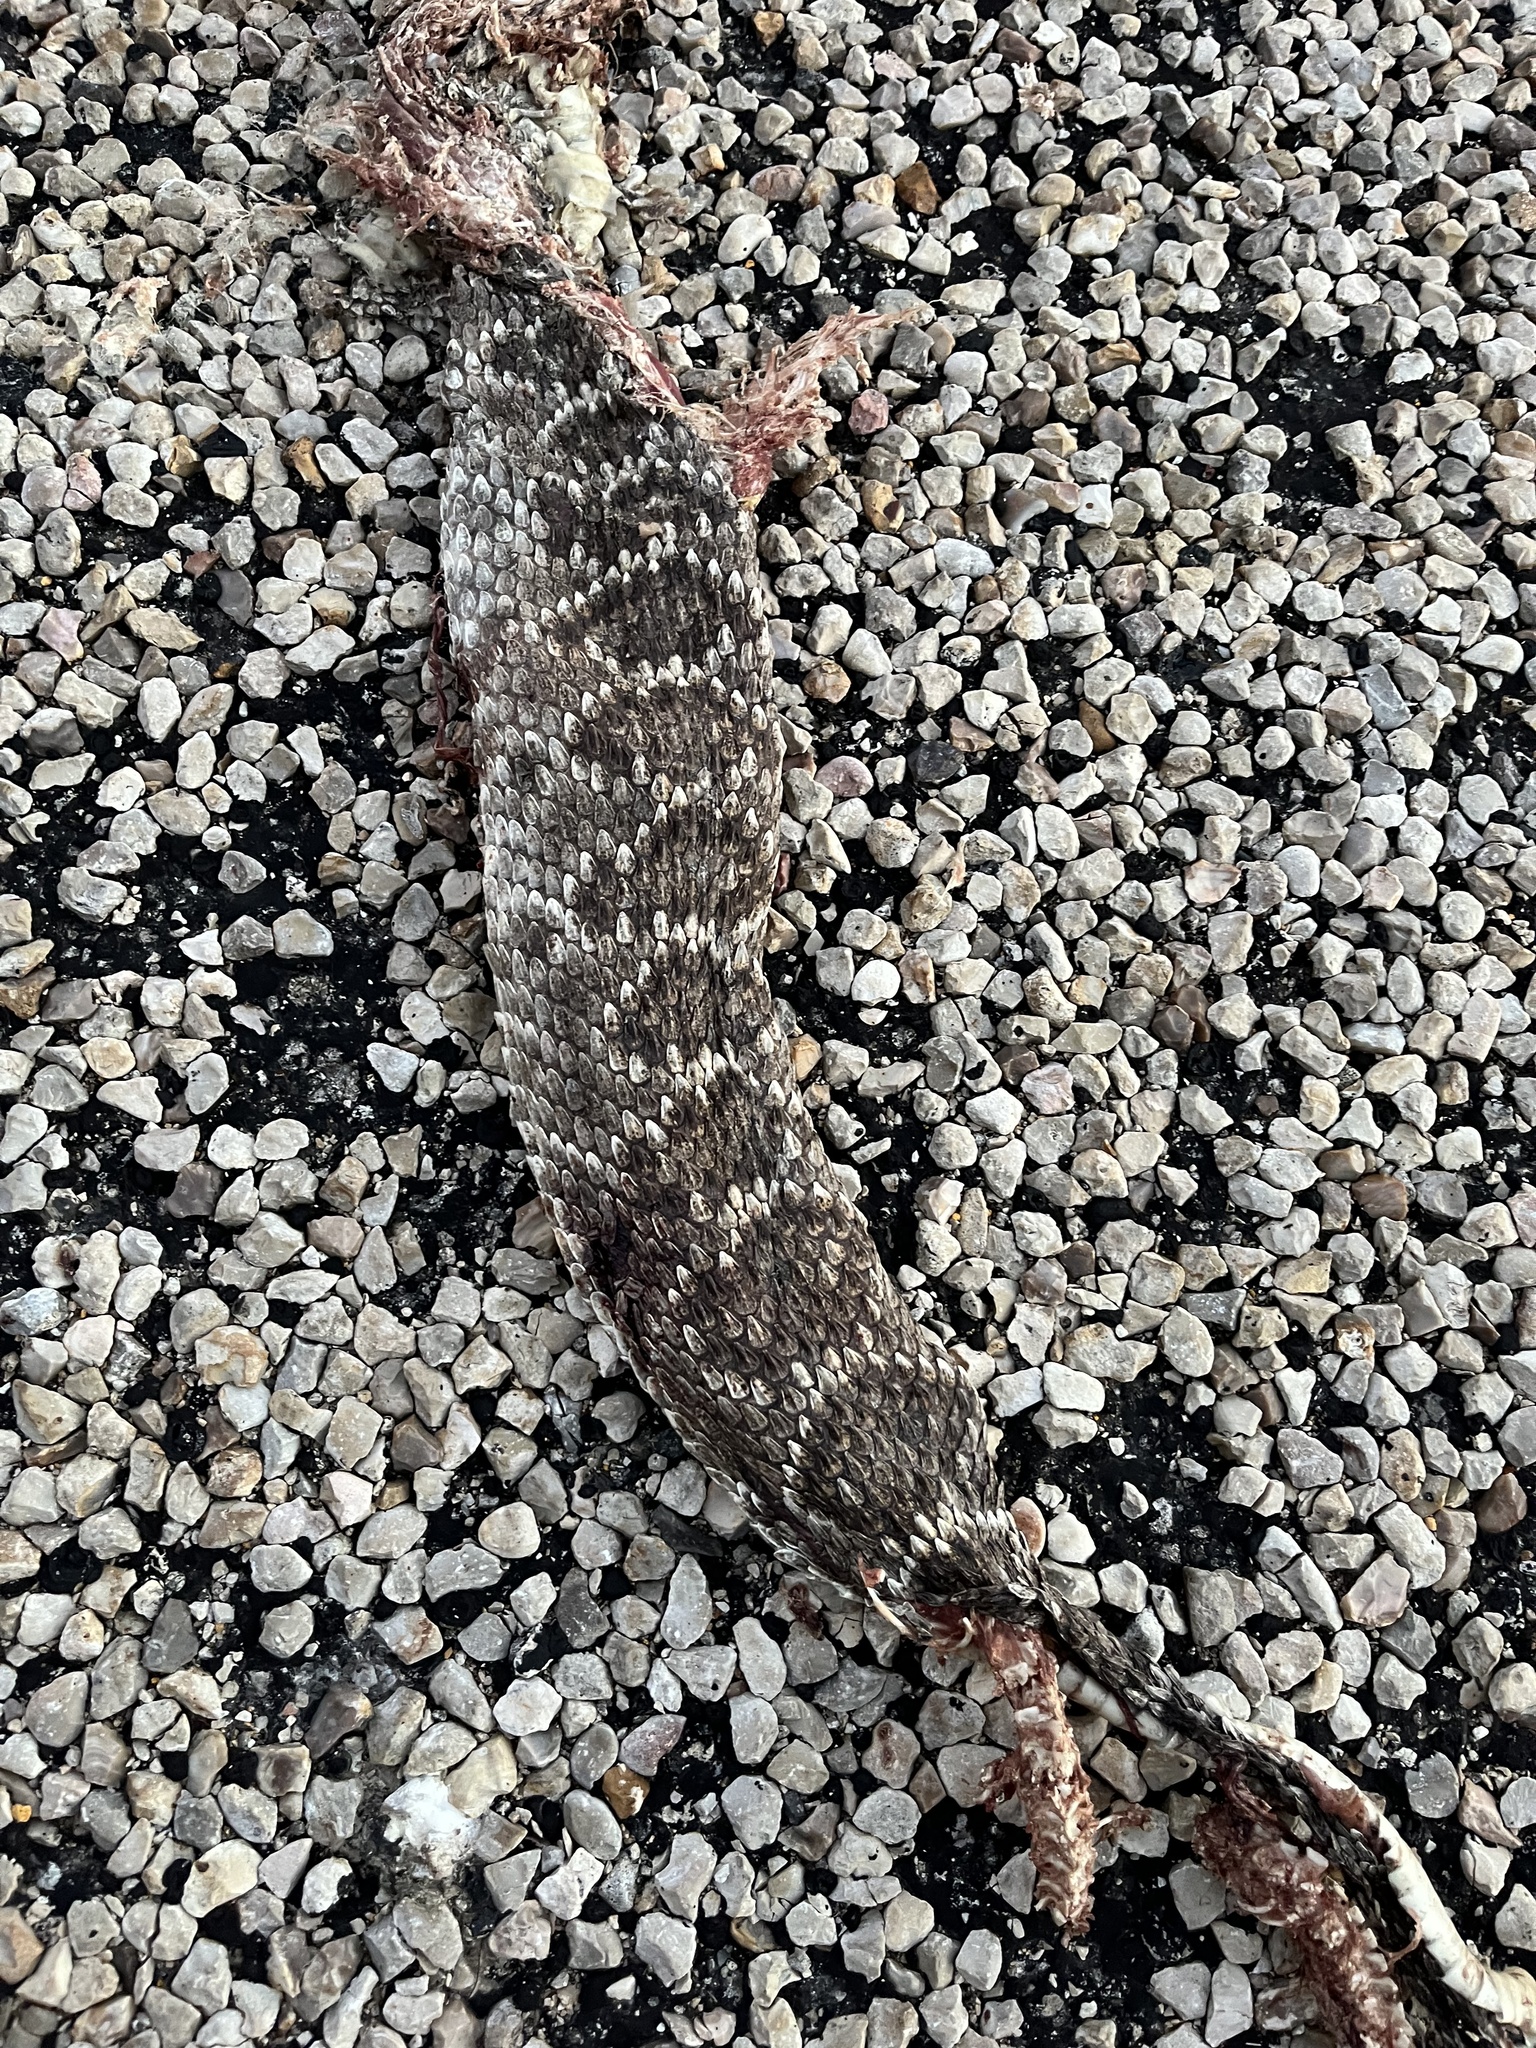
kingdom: Animalia
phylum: Chordata
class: Squamata
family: Viperidae
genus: Crotalus
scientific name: Crotalus atrox
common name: Western diamond-backed rattlesnake
